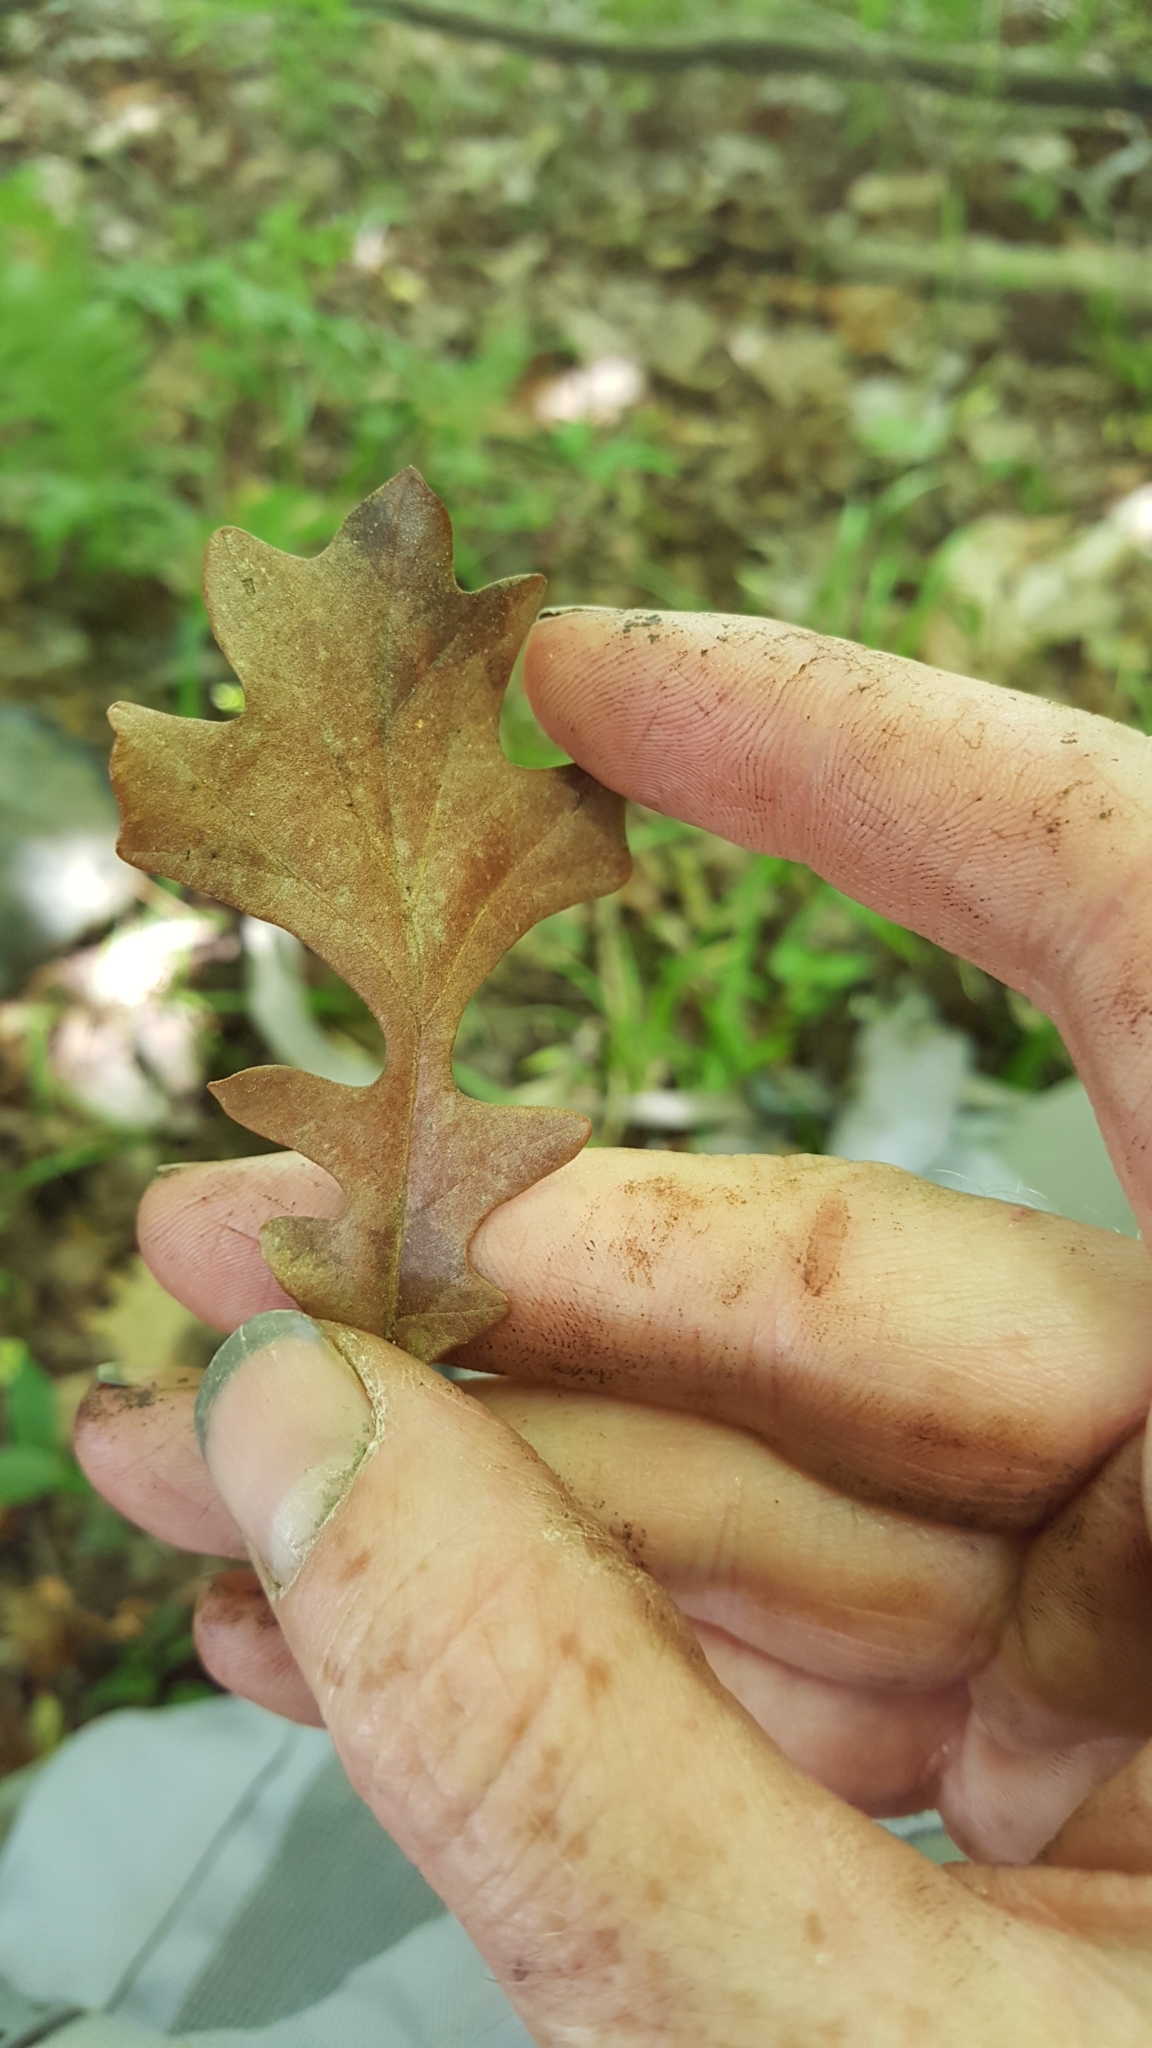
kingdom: Plantae
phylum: Tracheophyta
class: Magnoliopsida
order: Fagales
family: Fagaceae
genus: Quercus
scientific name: Quercus macrocarpa
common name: Bur oak
